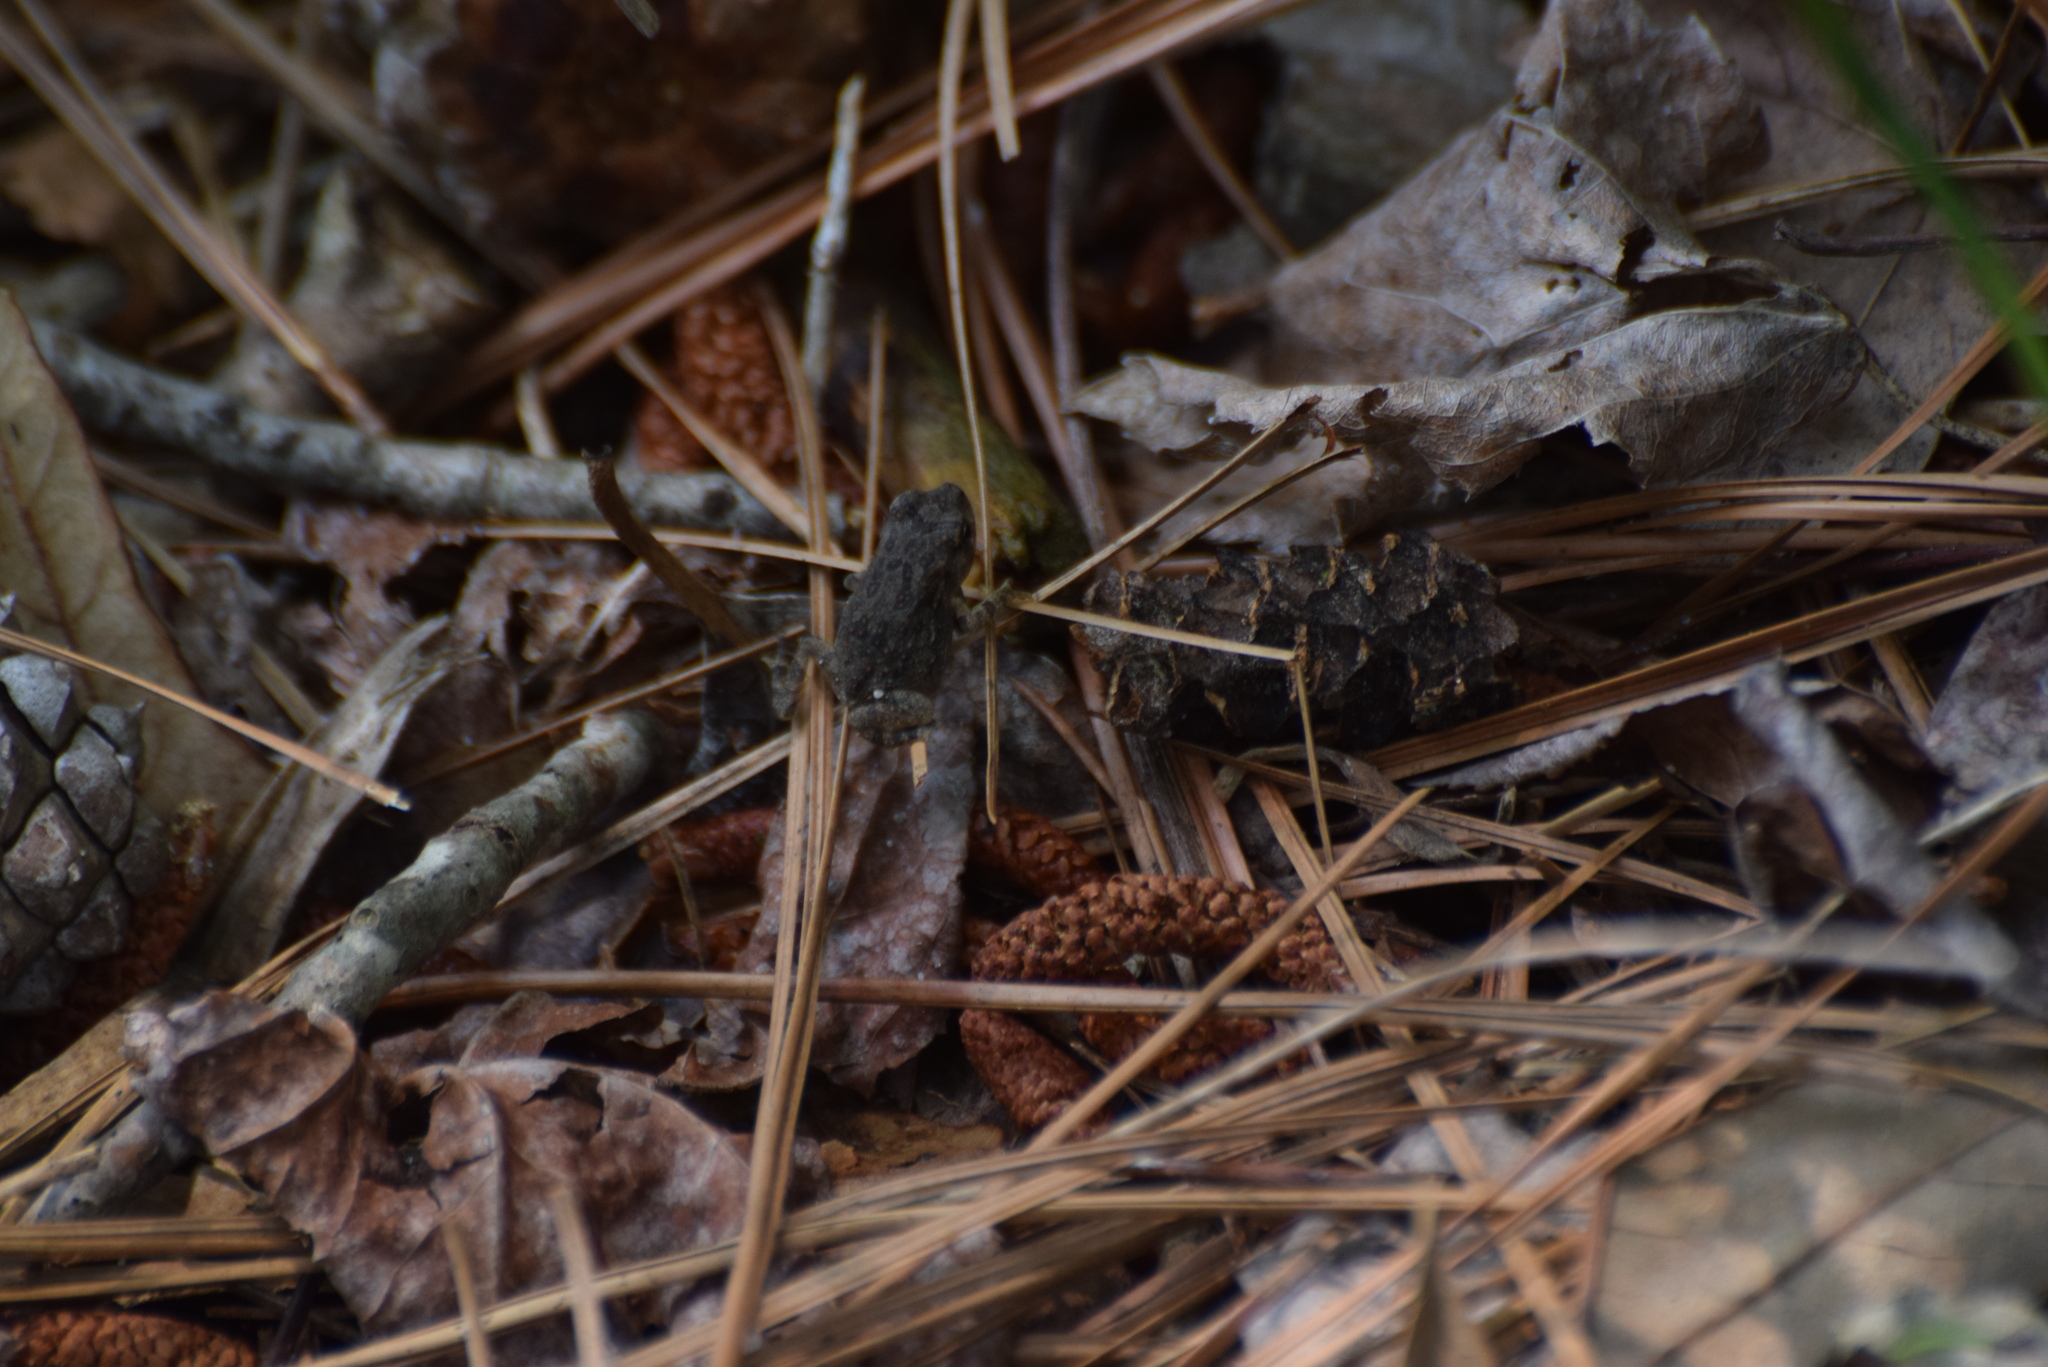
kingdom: Animalia
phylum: Chordata
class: Amphibia
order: Anura
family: Bufonidae
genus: Anaxyrus
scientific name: Anaxyrus fowleri
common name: Fowler's toad
